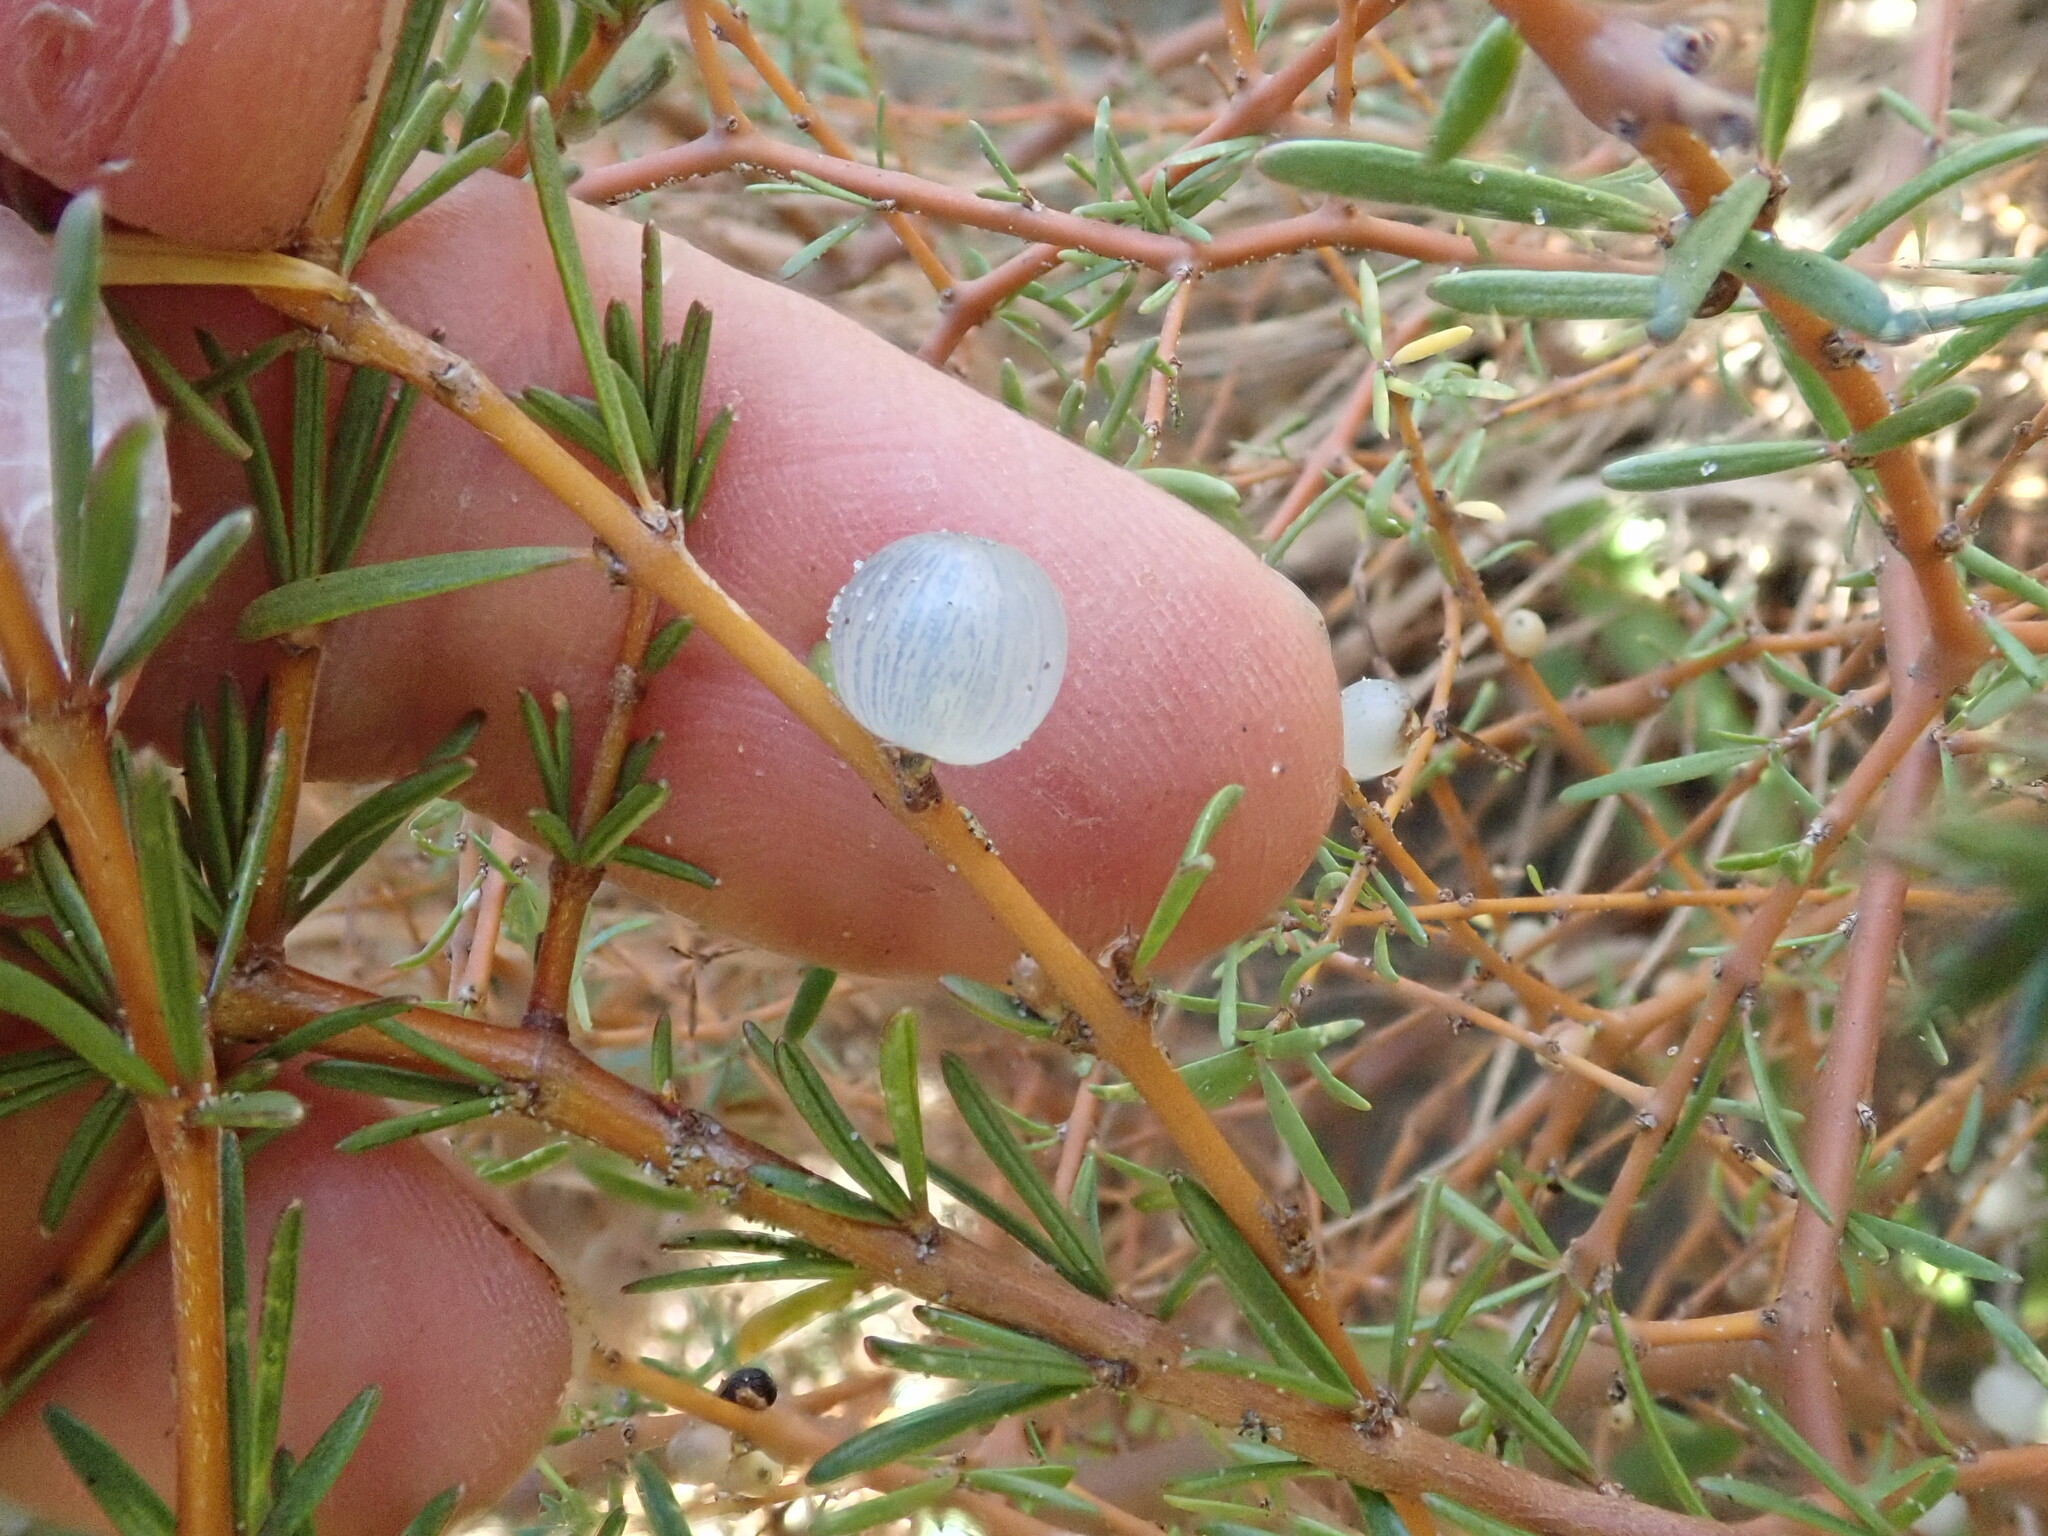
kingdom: Plantae
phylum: Tracheophyta
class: Magnoliopsida
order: Gentianales
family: Rubiaceae
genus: Coprosma
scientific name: Coprosma acerosa
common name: Sand coprosma
